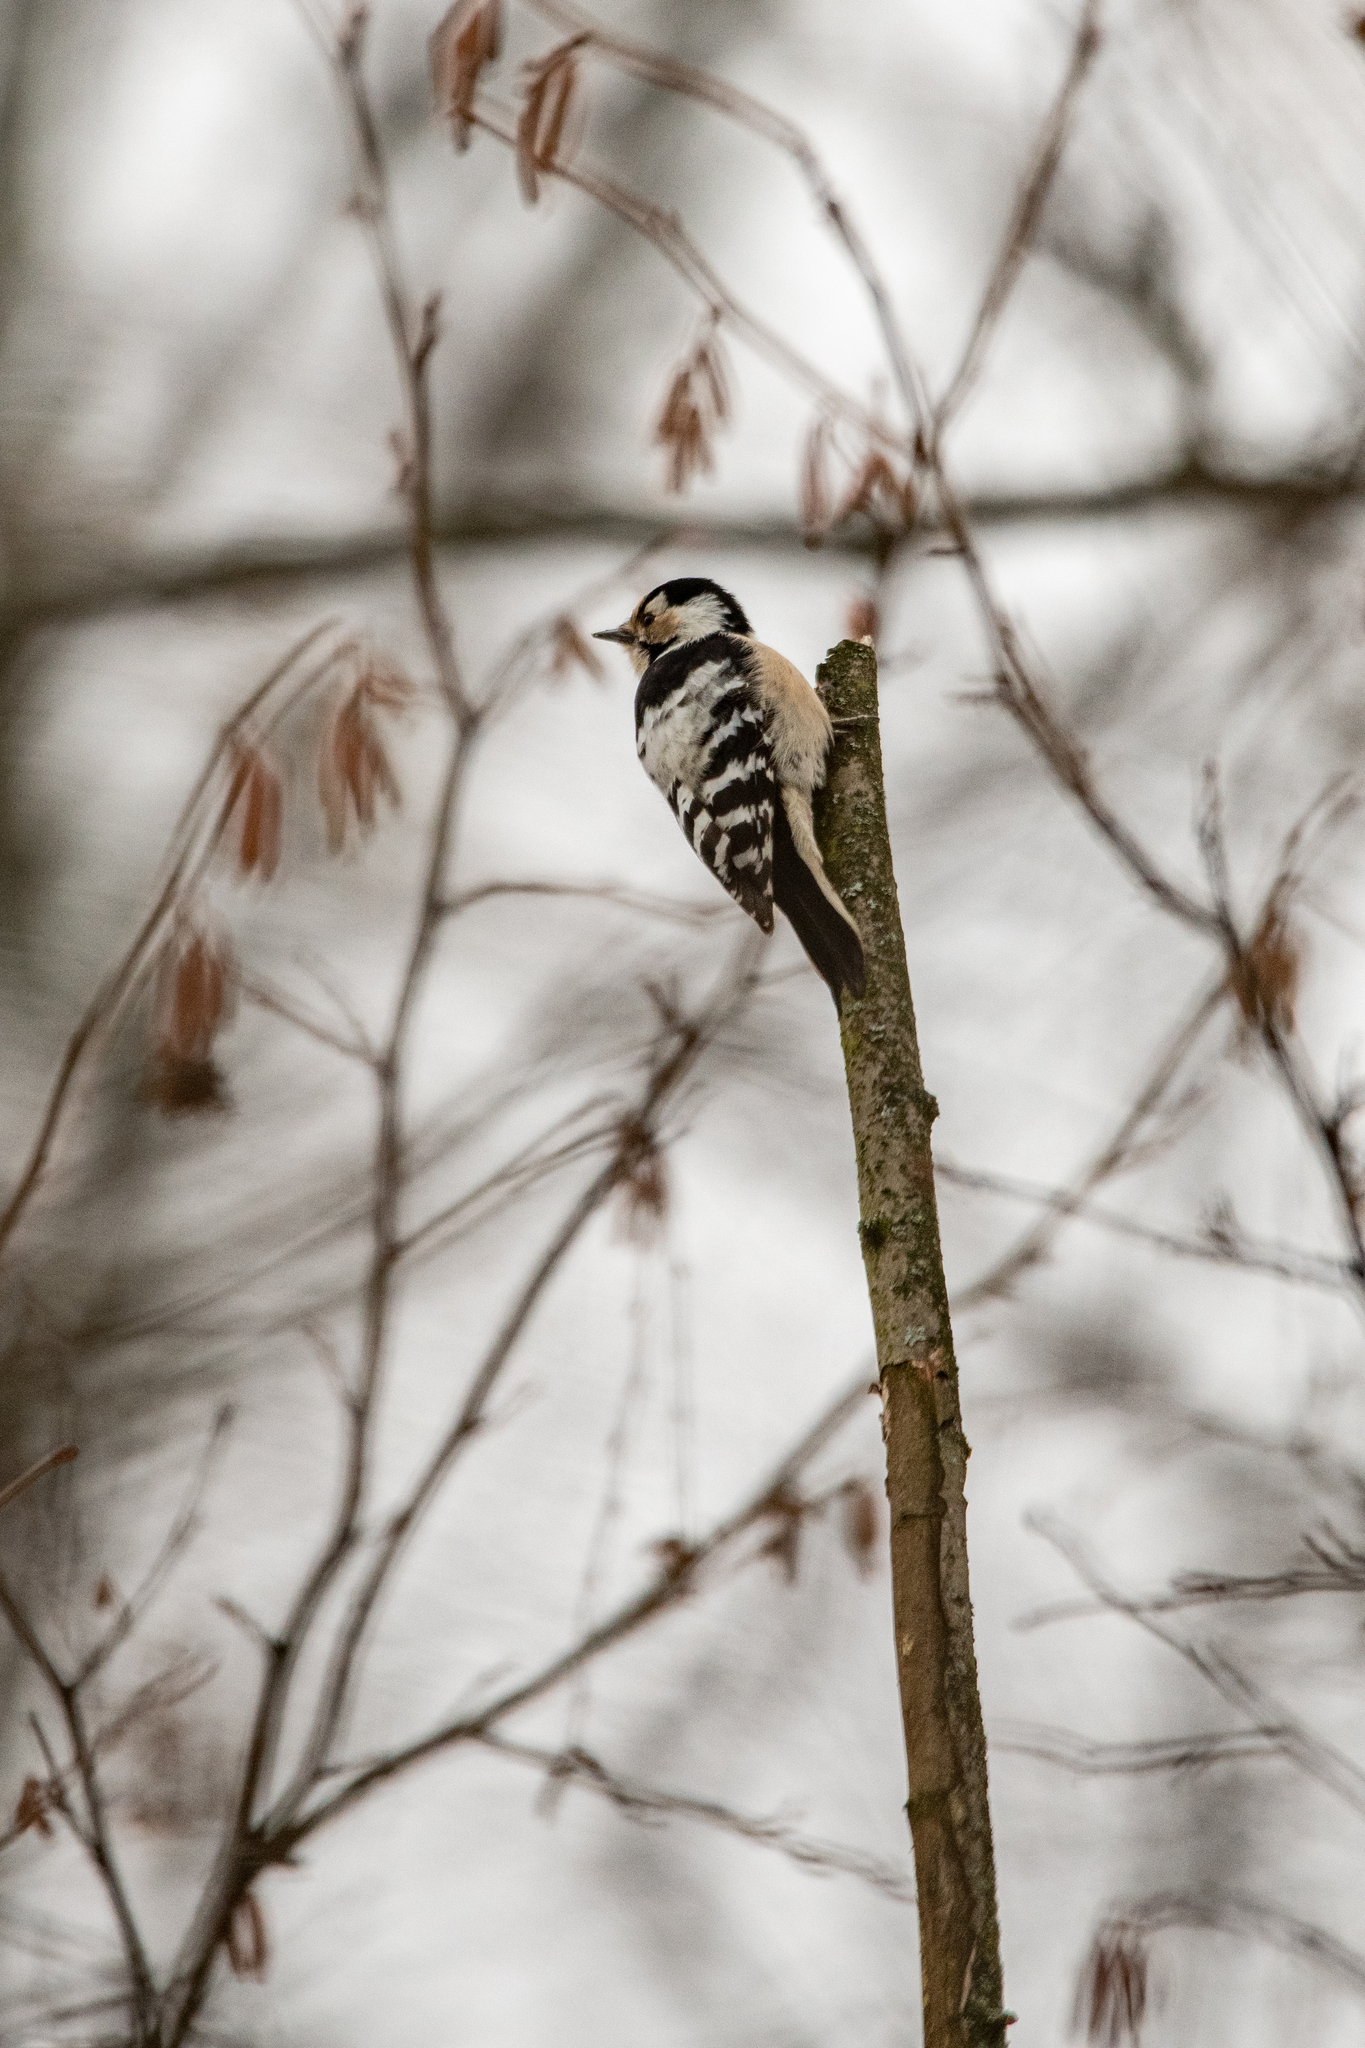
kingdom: Animalia
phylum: Chordata
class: Aves
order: Piciformes
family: Picidae
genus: Dryobates
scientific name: Dryobates minor
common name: Lesser spotted woodpecker
